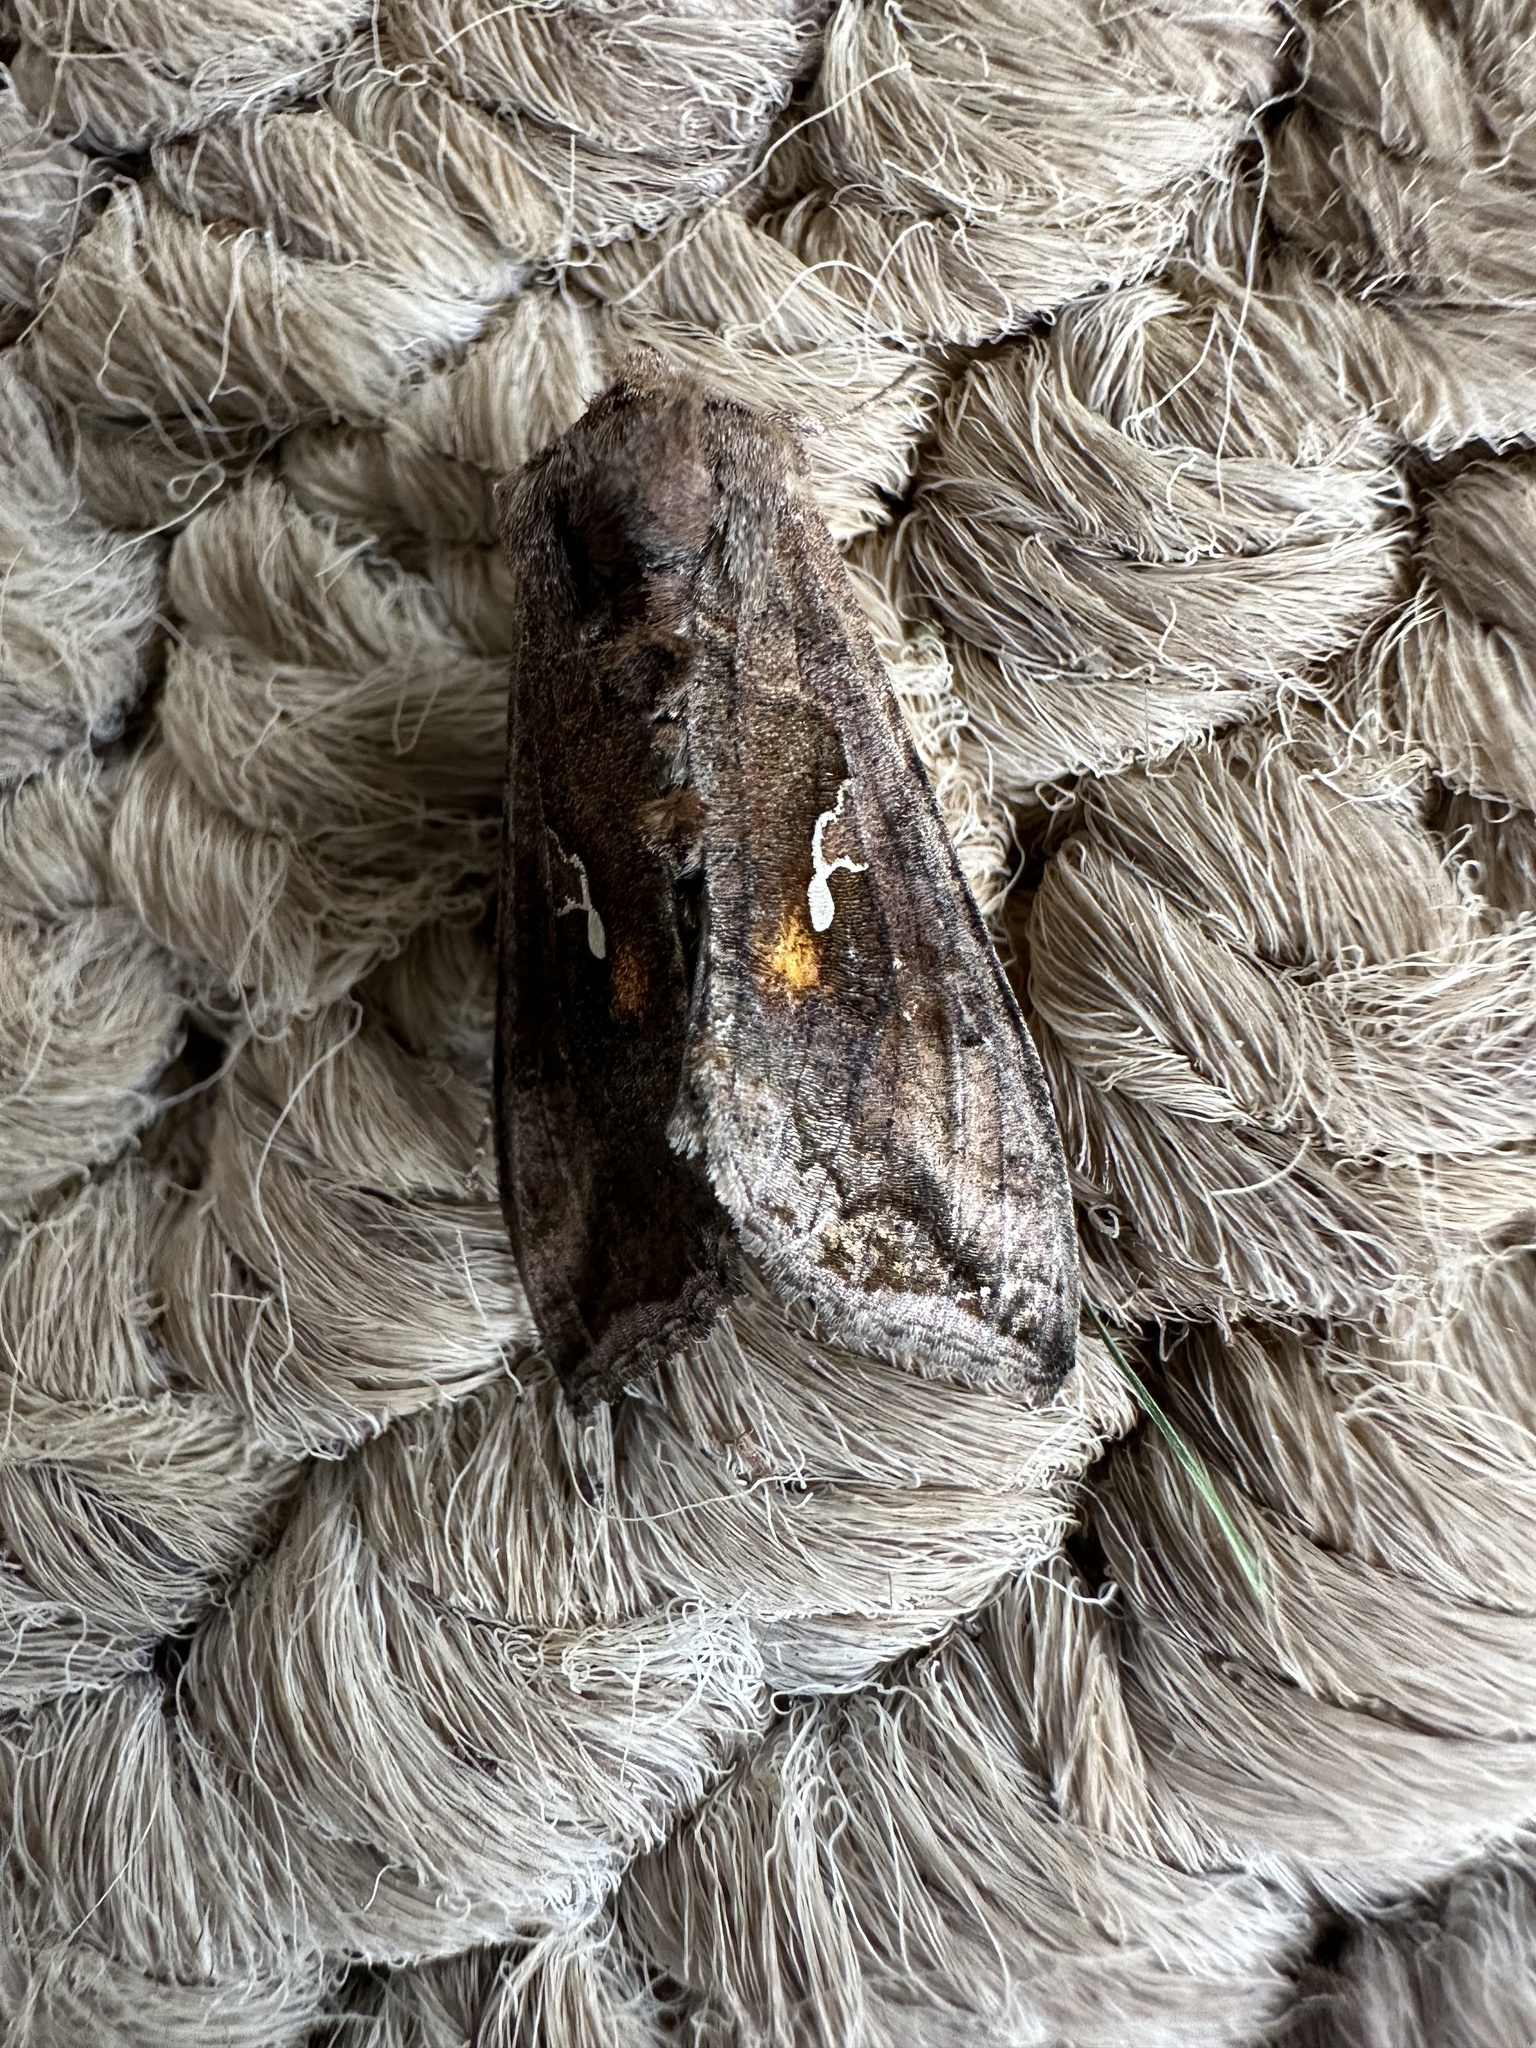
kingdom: Animalia
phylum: Arthropoda
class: Insecta
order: Lepidoptera
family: Noctuidae
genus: Autoplusia
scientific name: Autoplusia gammoides
